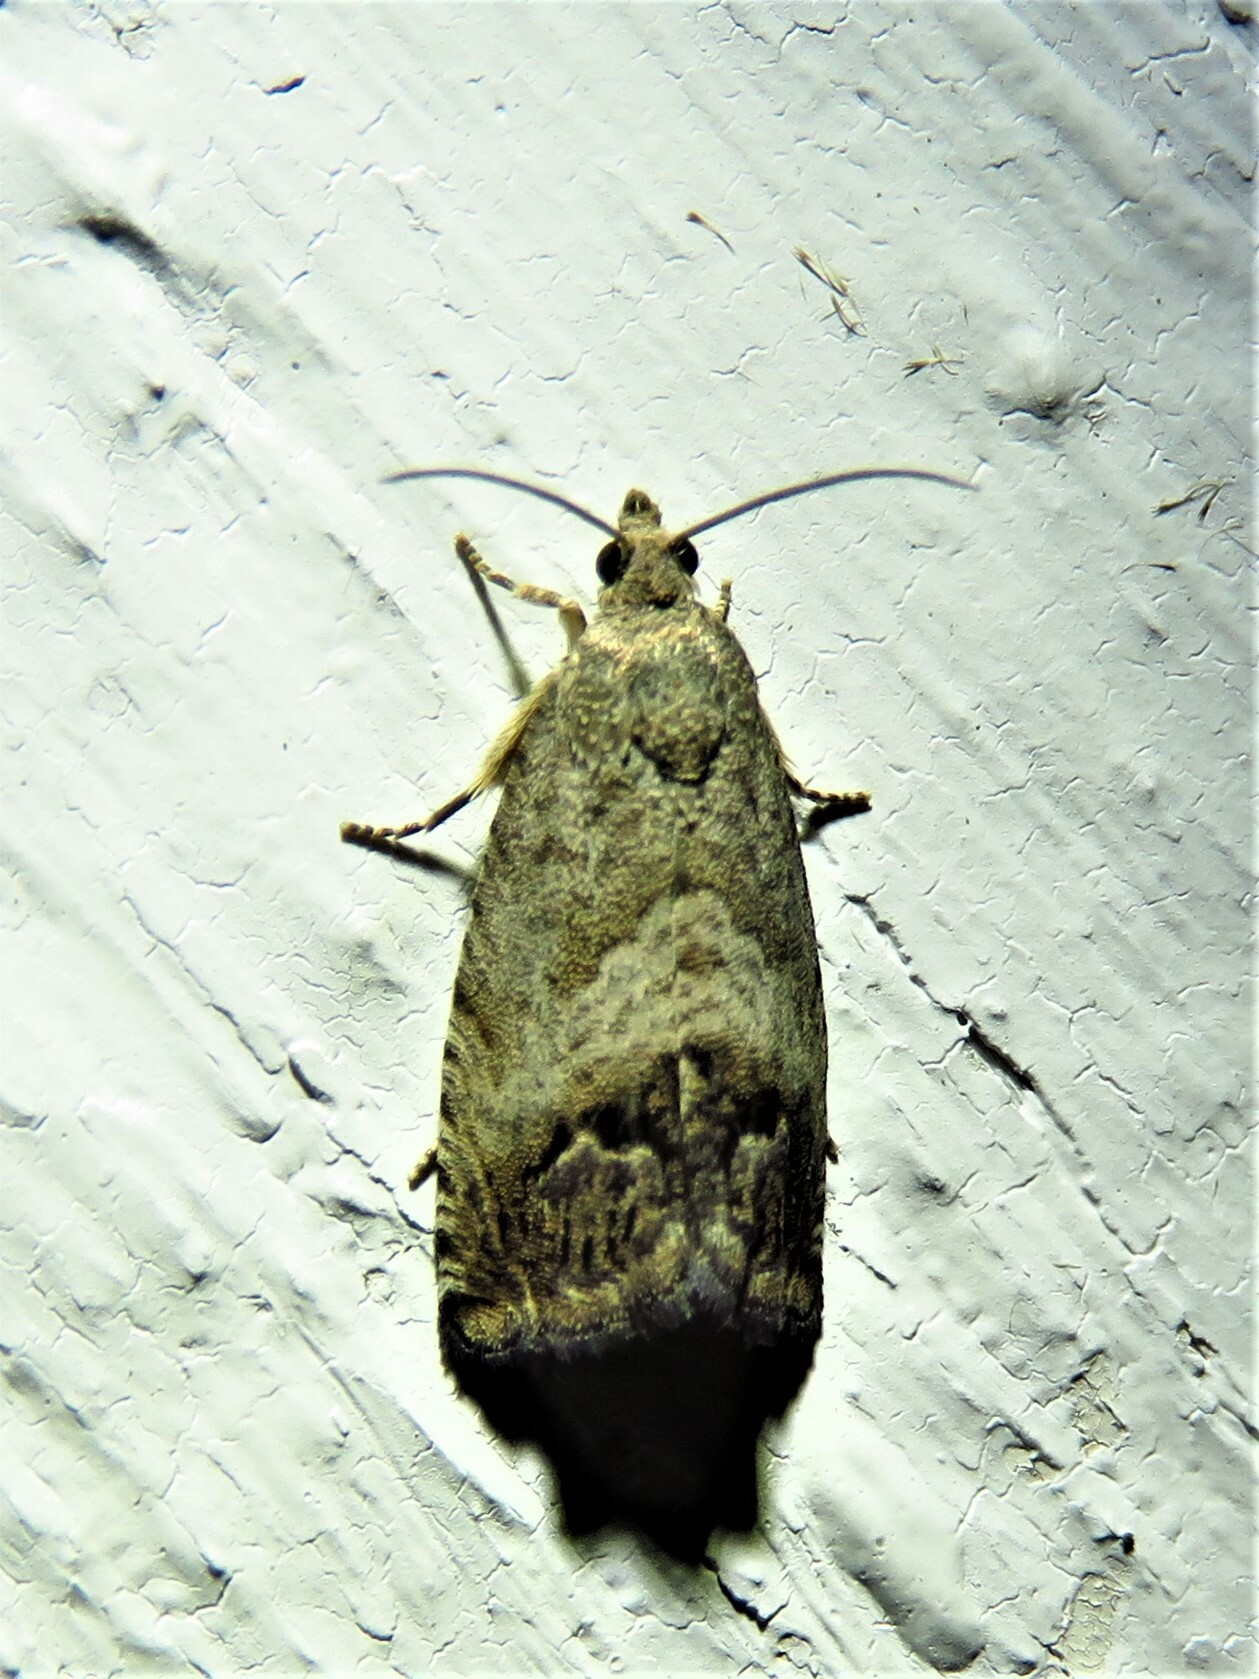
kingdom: Animalia
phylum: Arthropoda
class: Insecta
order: Lepidoptera
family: Tortricidae
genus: Cydia
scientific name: Cydia splendana
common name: De: kastanienwickler, eichenwickler es: oruga de la castaña fr: carpocapse des châtaignes it: cidia o tortrice tardiva delle castagne pt: bichado das castanhas gb: acorn moth, chestnut fruit tortrix
